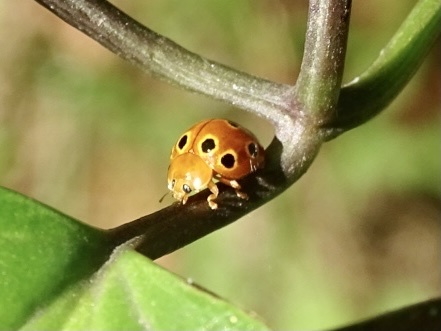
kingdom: Animalia
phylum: Arthropoda
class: Insecta
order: Coleoptera
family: Coccinellidae
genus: Microcaria
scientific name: Microcaria
